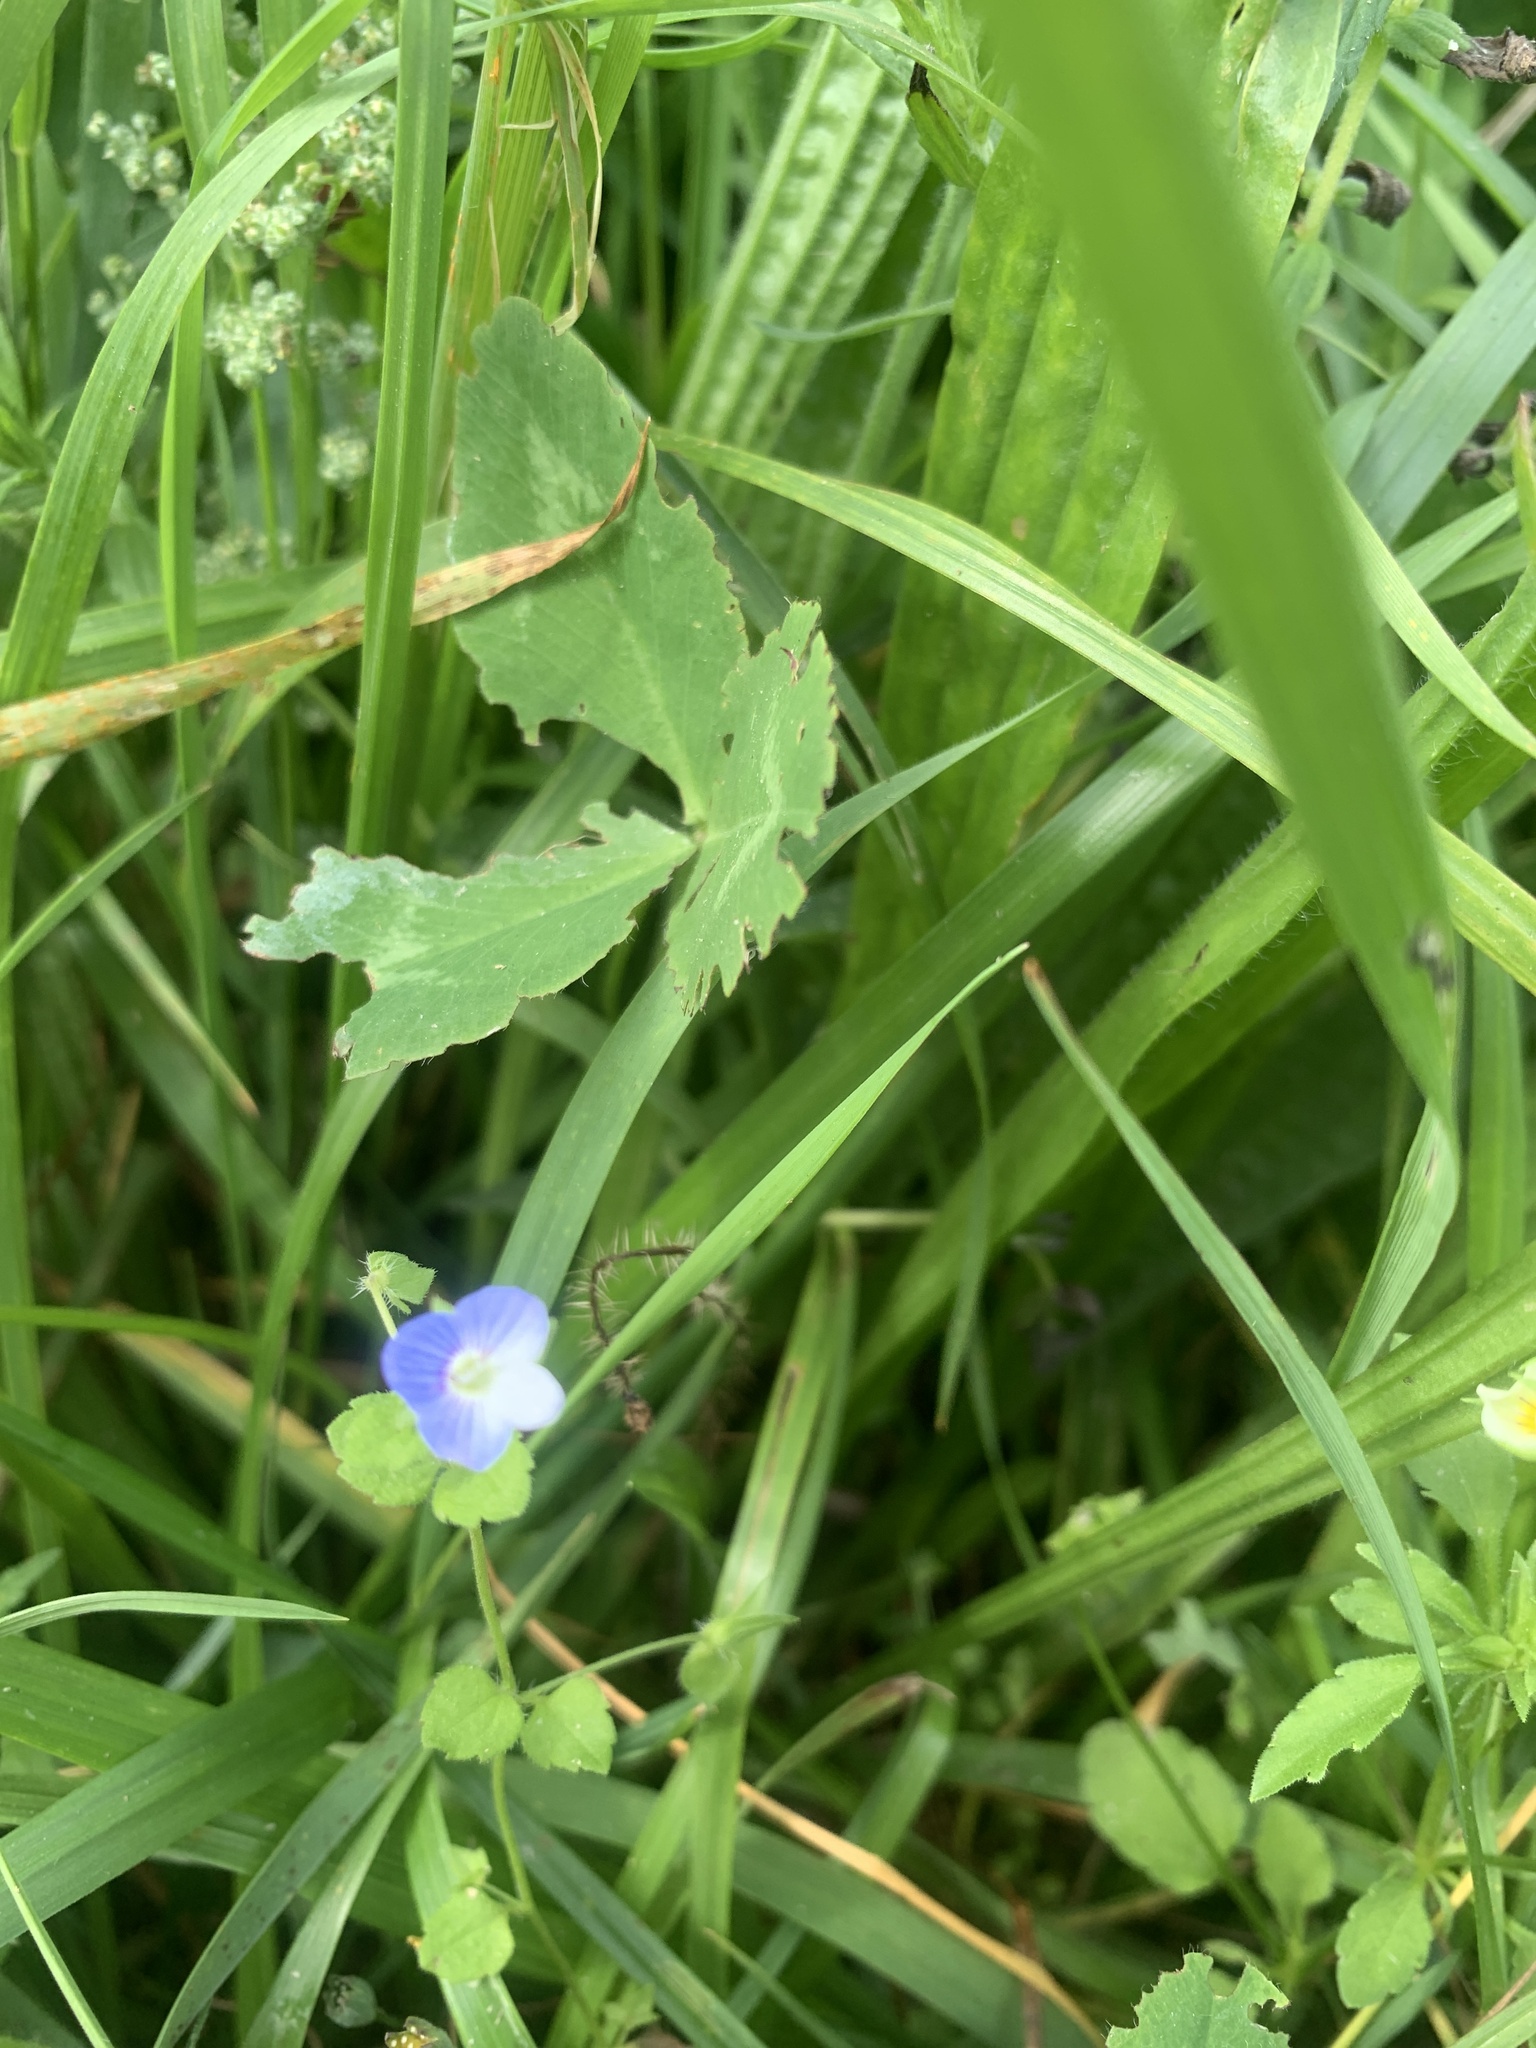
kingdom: Plantae
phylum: Tracheophyta
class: Magnoliopsida
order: Lamiales
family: Plantaginaceae
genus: Veronica
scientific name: Veronica persica
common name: Common field-speedwell
